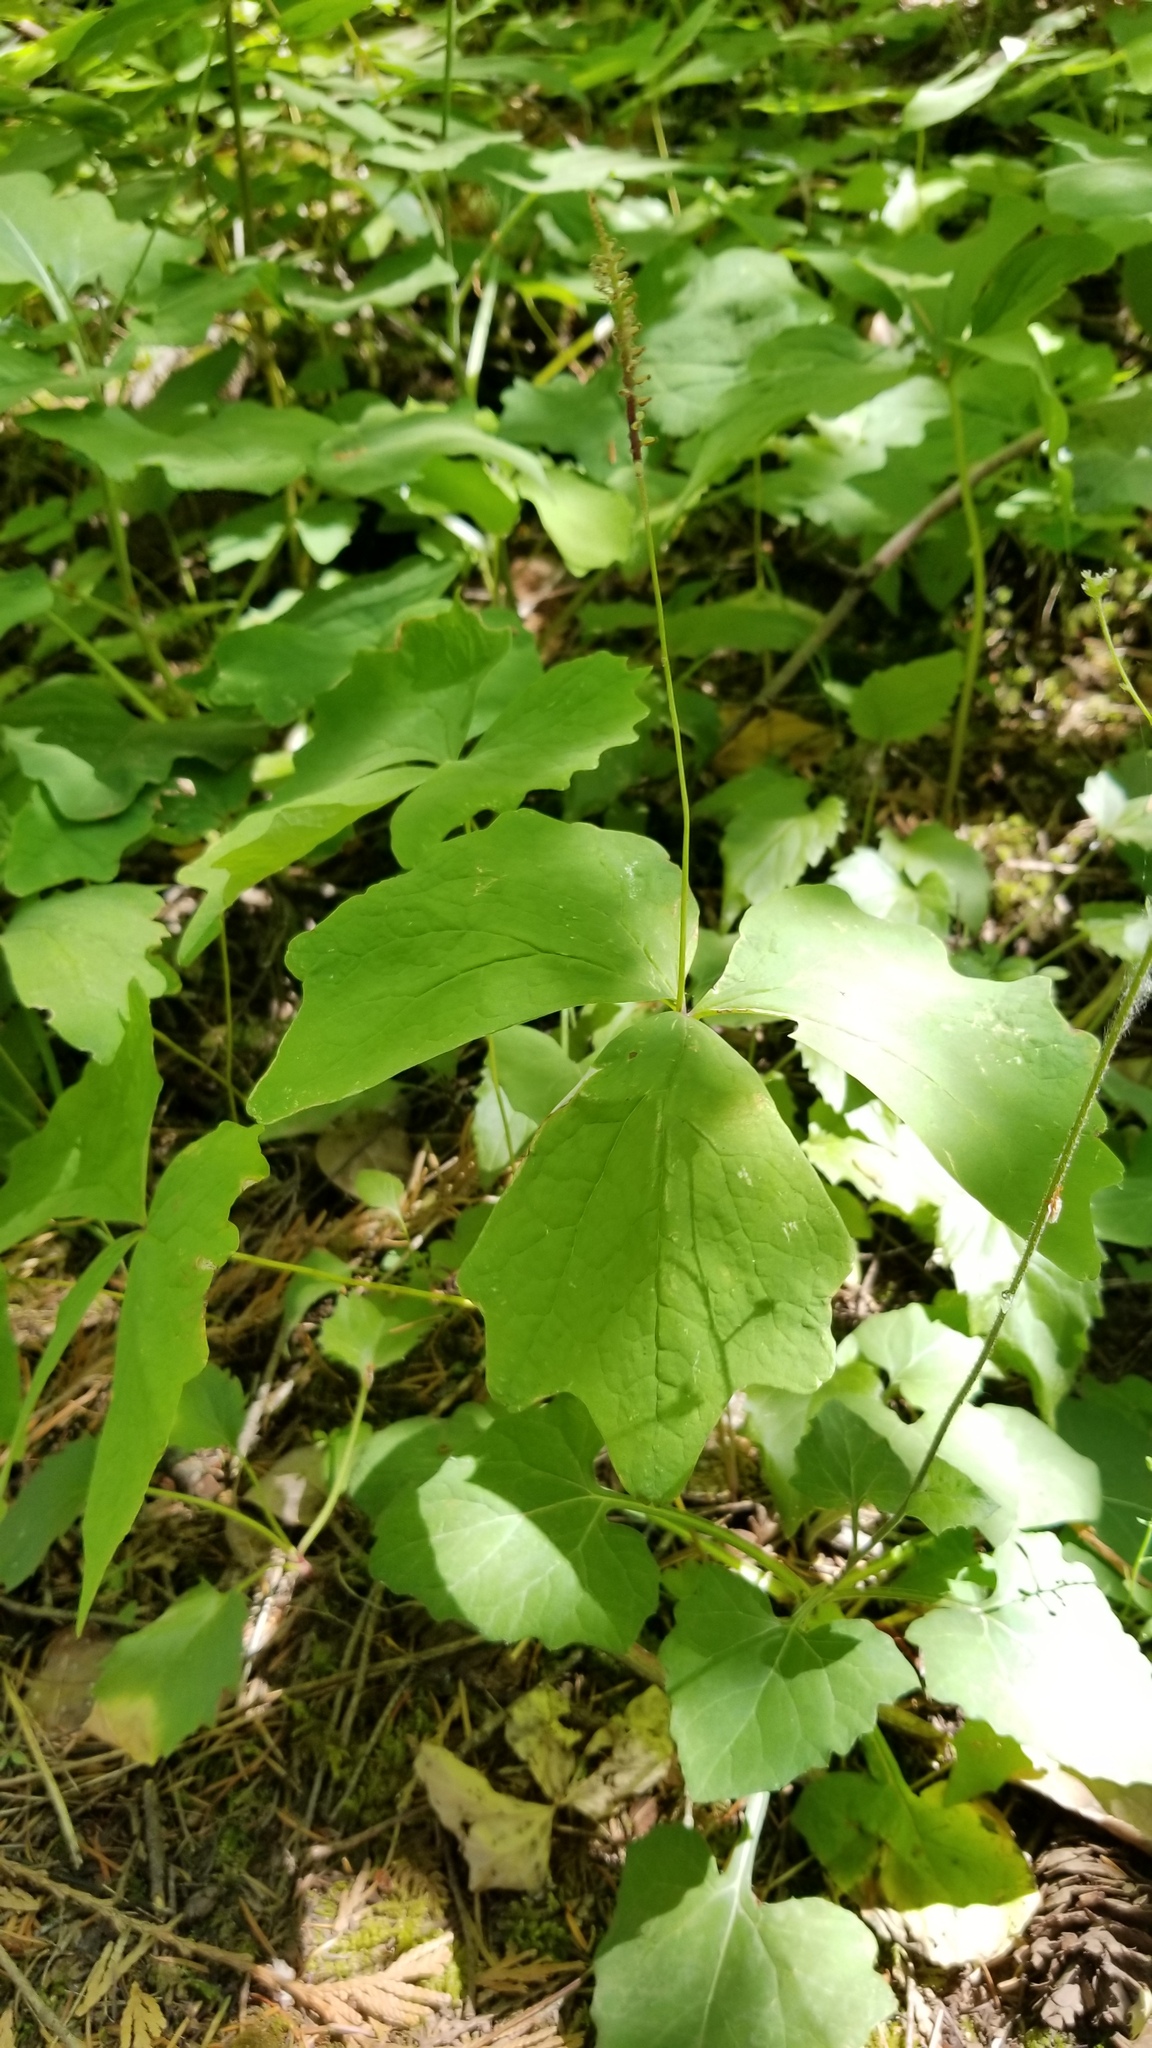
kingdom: Plantae
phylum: Tracheophyta
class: Magnoliopsida
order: Ranunculales
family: Berberidaceae
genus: Achlys
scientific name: Achlys triphylla
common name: Vanilla-leaf
